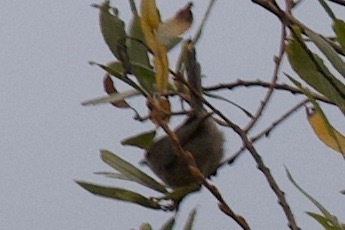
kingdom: Animalia
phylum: Chordata
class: Aves
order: Passeriformes
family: Aegithalidae
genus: Psaltriparus
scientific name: Psaltriparus minimus
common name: American bushtit
